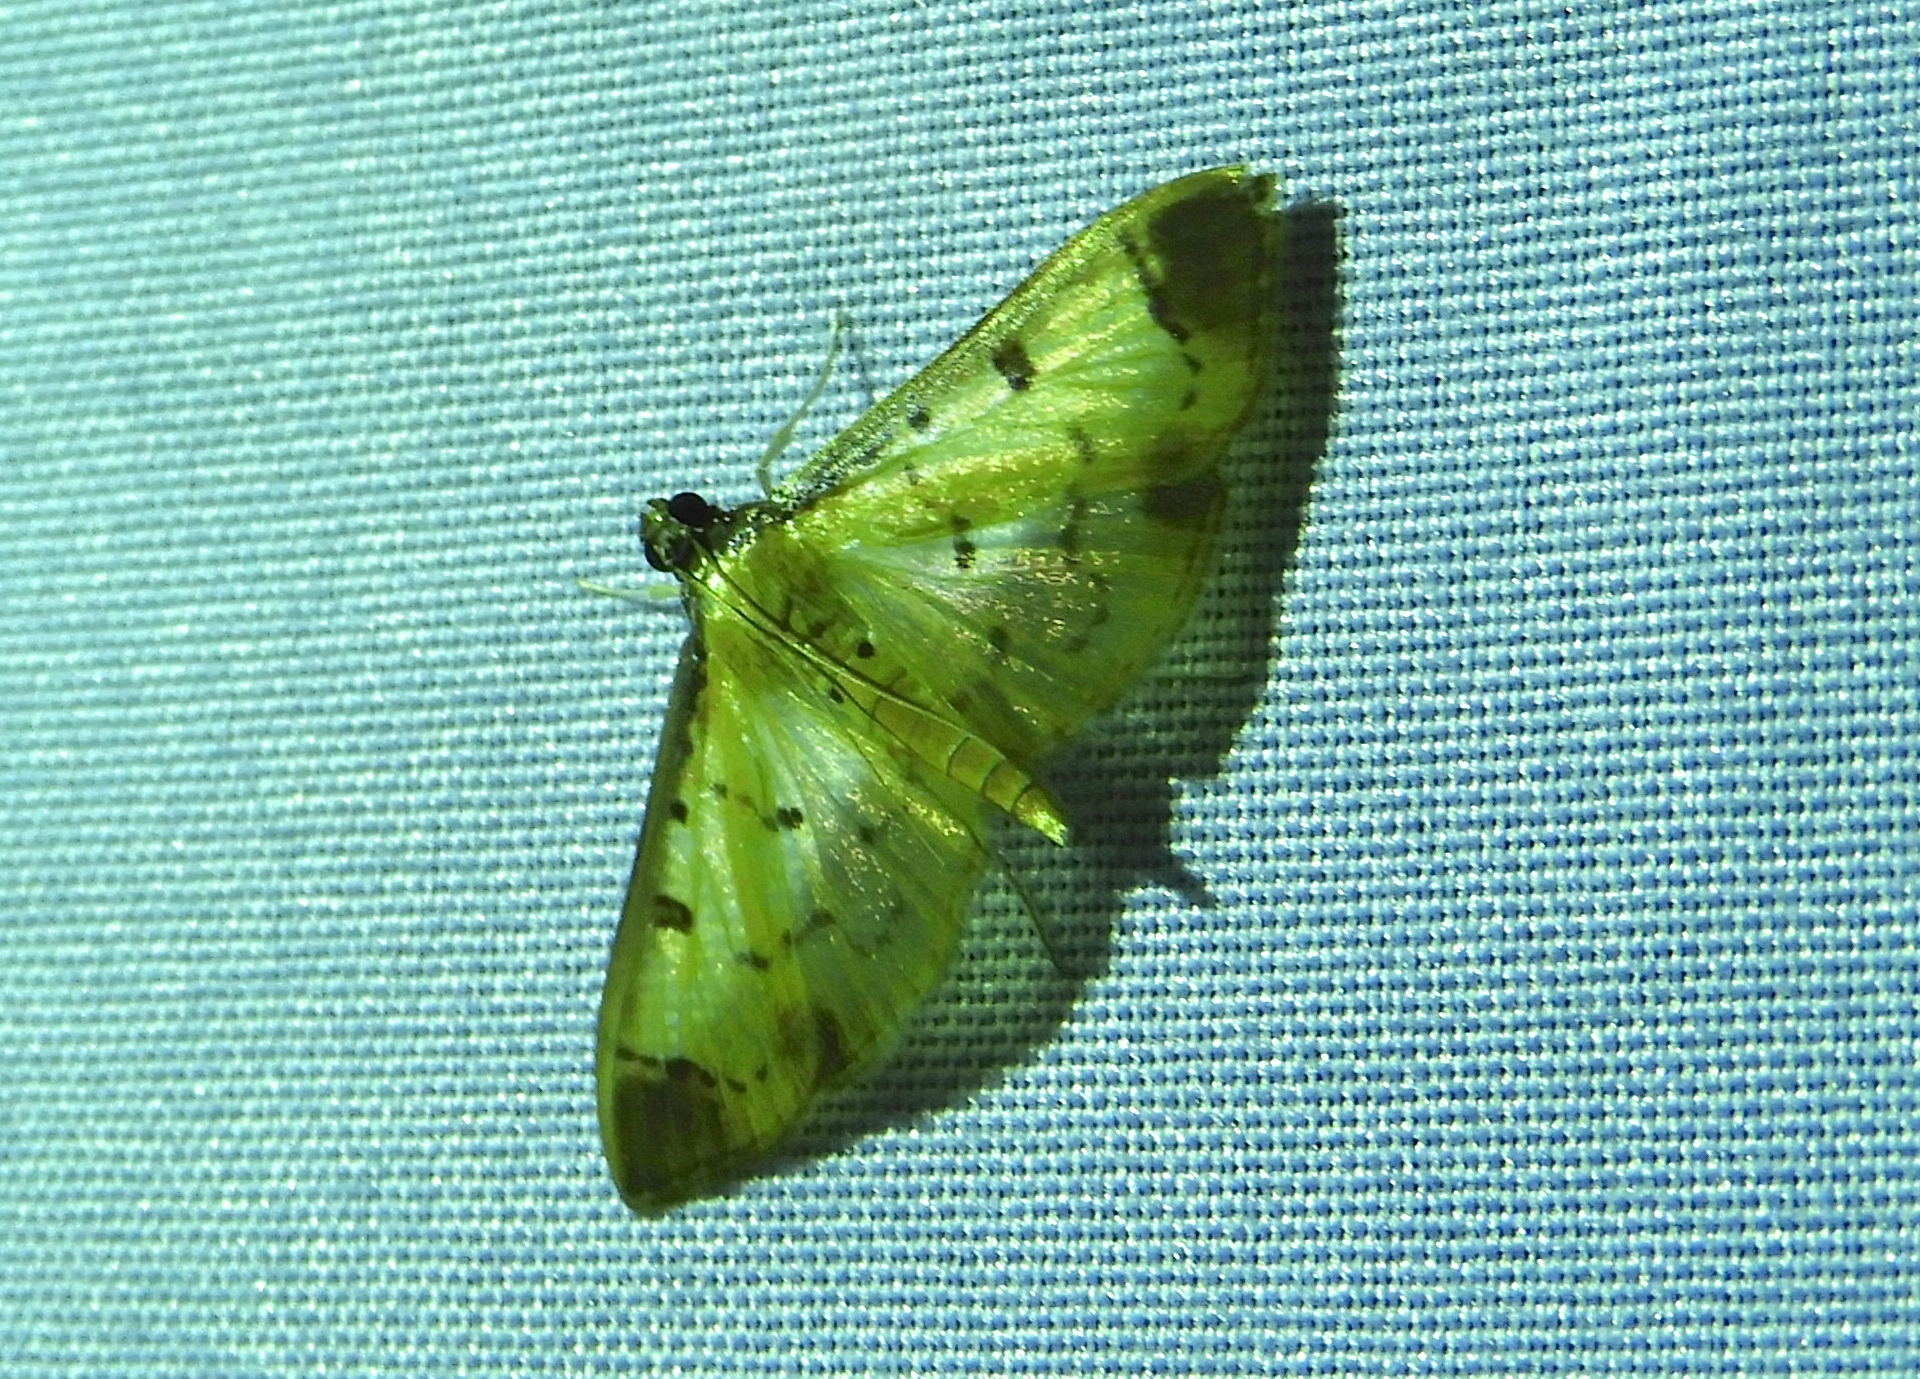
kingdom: Animalia
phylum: Arthropoda
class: Insecta
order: Lepidoptera
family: Crambidae
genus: Eulepte
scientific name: Eulepte gastralis
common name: Leaf skeletonizing crambid moth
